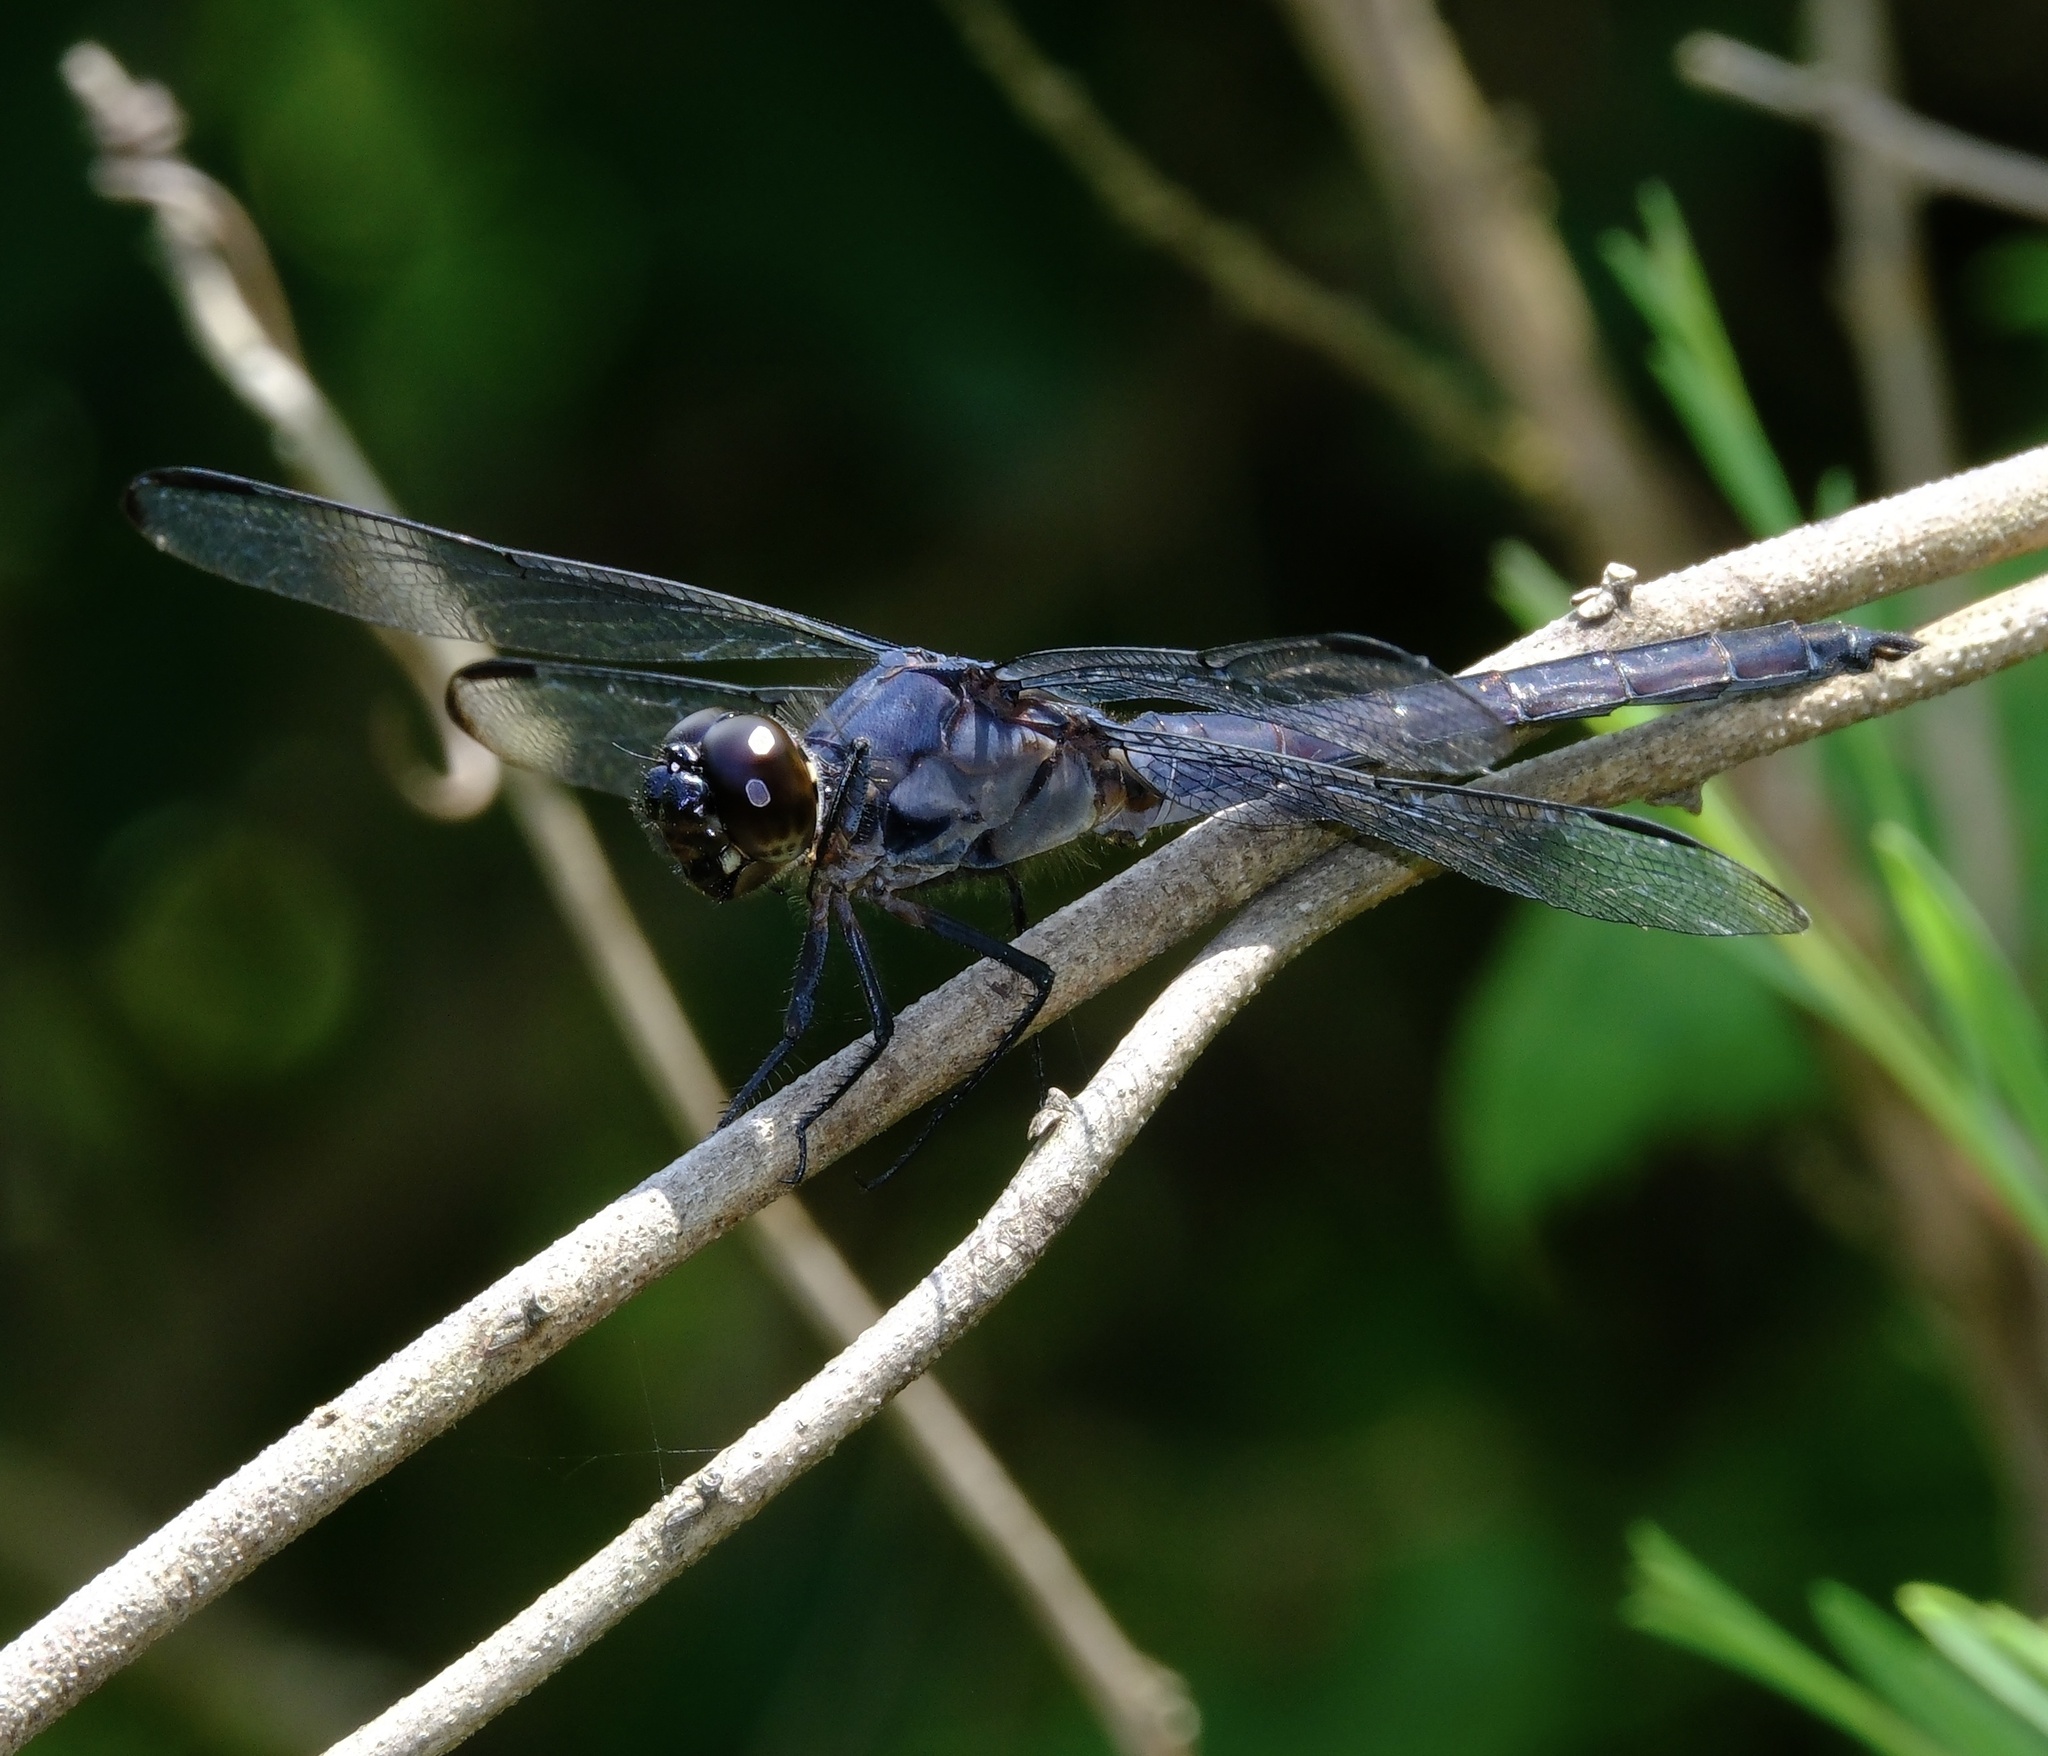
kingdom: Animalia
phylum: Arthropoda
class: Insecta
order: Odonata
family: Libellulidae
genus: Libellula
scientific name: Libellula incesta
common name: Slaty skimmer
